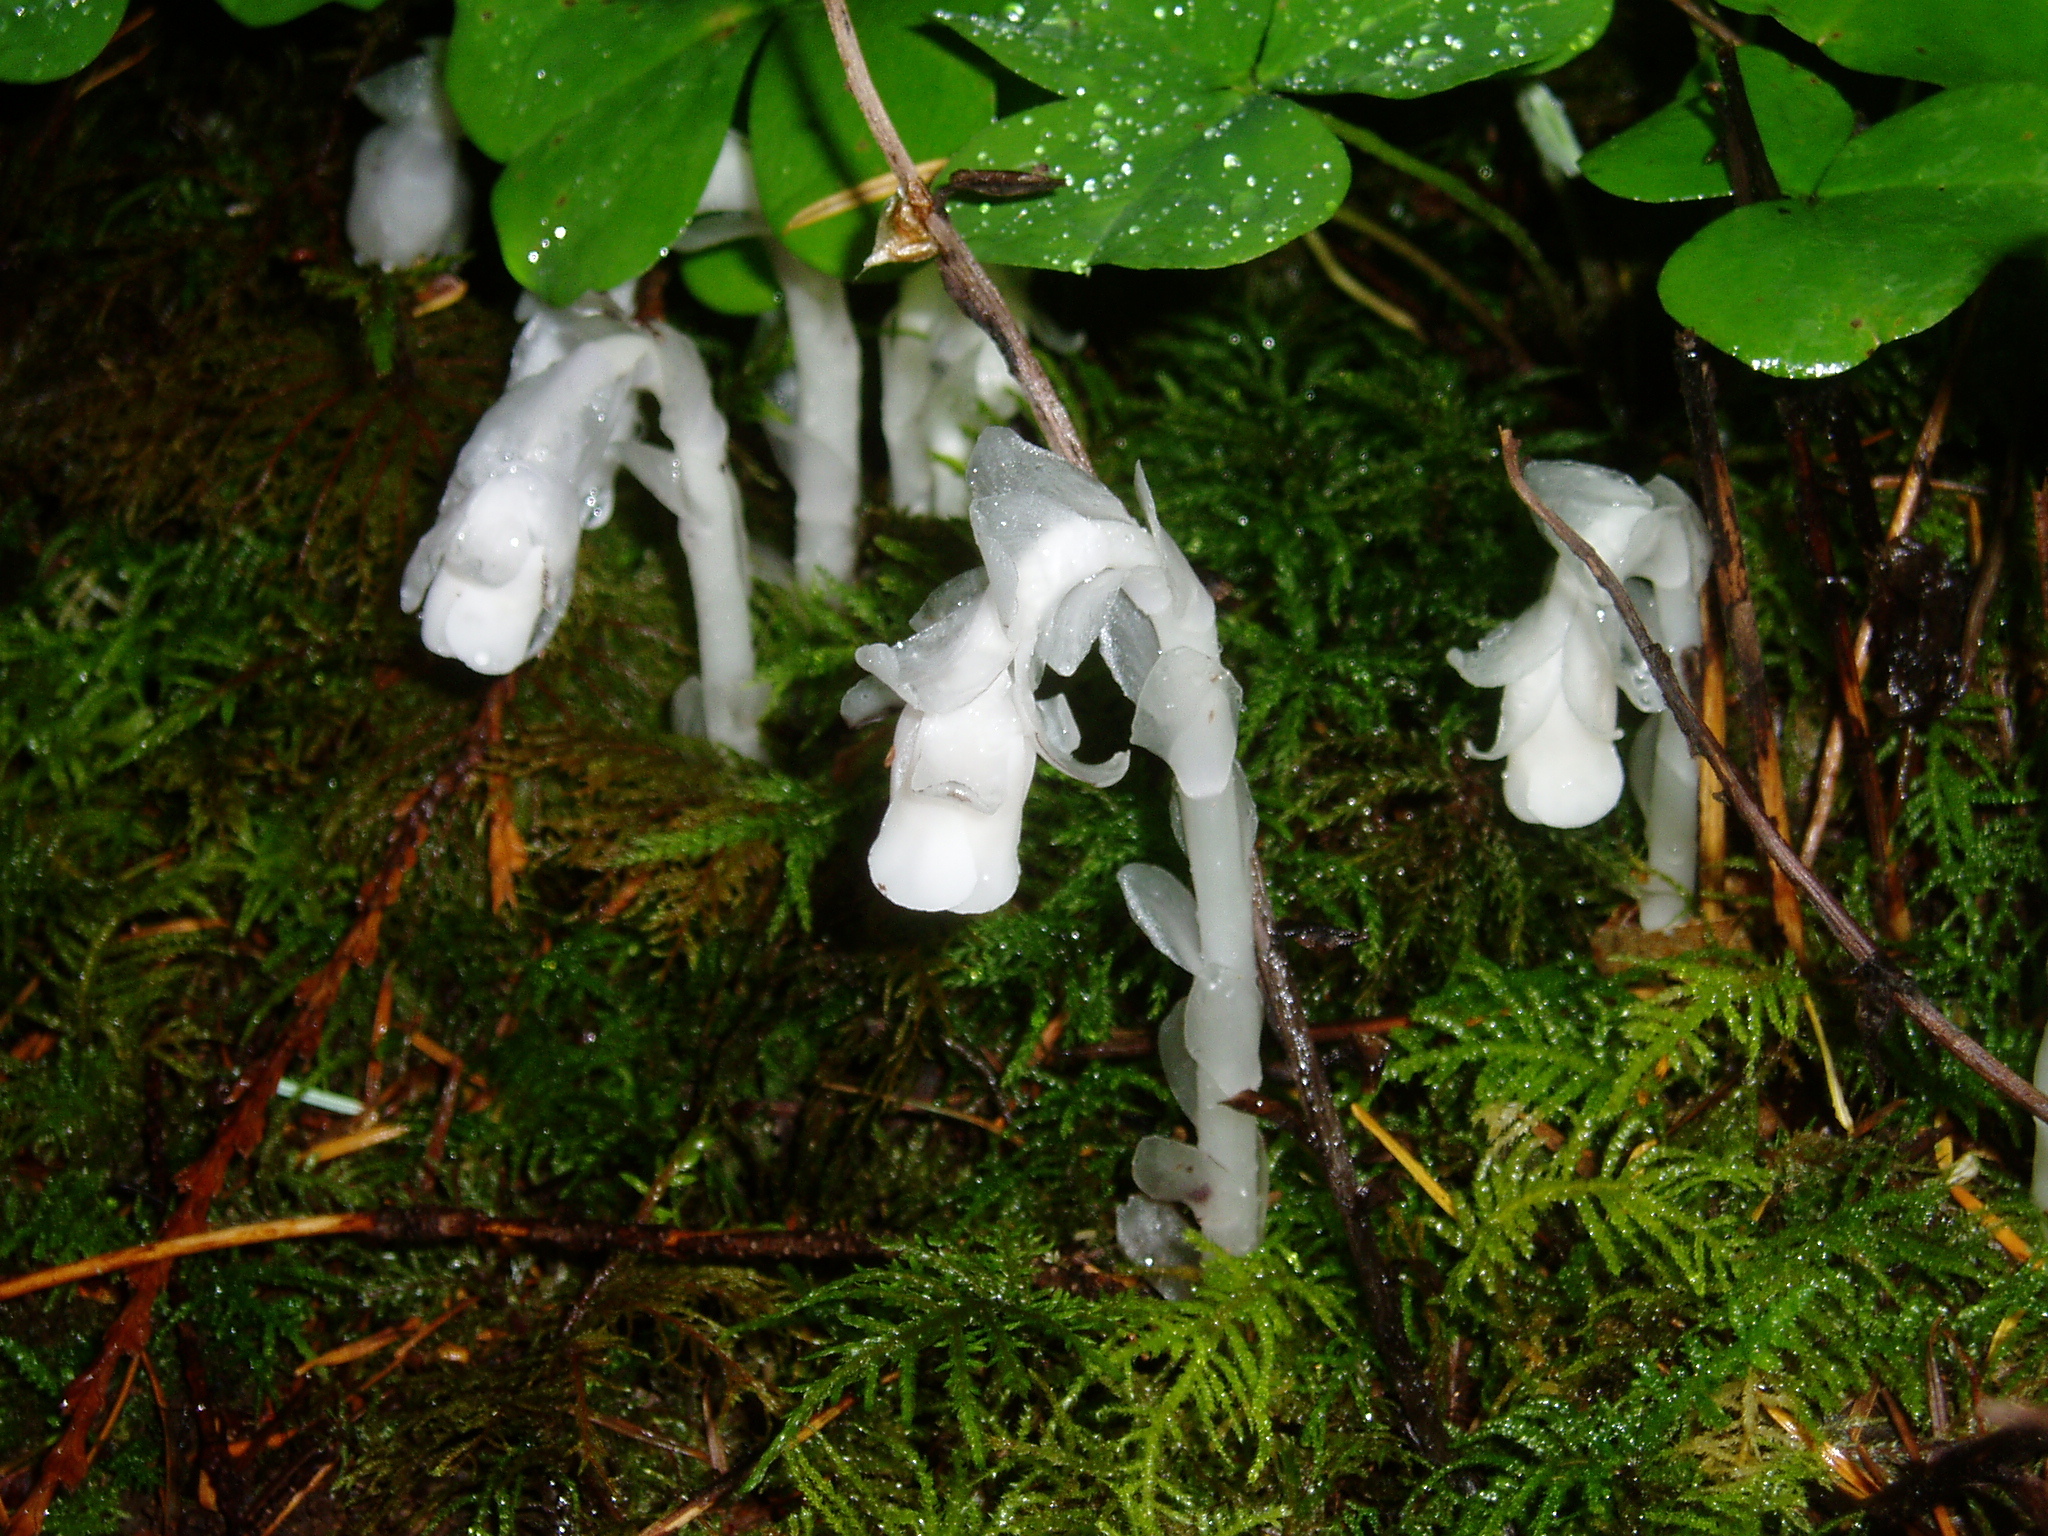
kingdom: Plantae
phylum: Tracheophyta
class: Magnoliopsida
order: Ericales
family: Ericaceae
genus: Monotropa
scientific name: Monotropa uniflora
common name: Convulsion root
